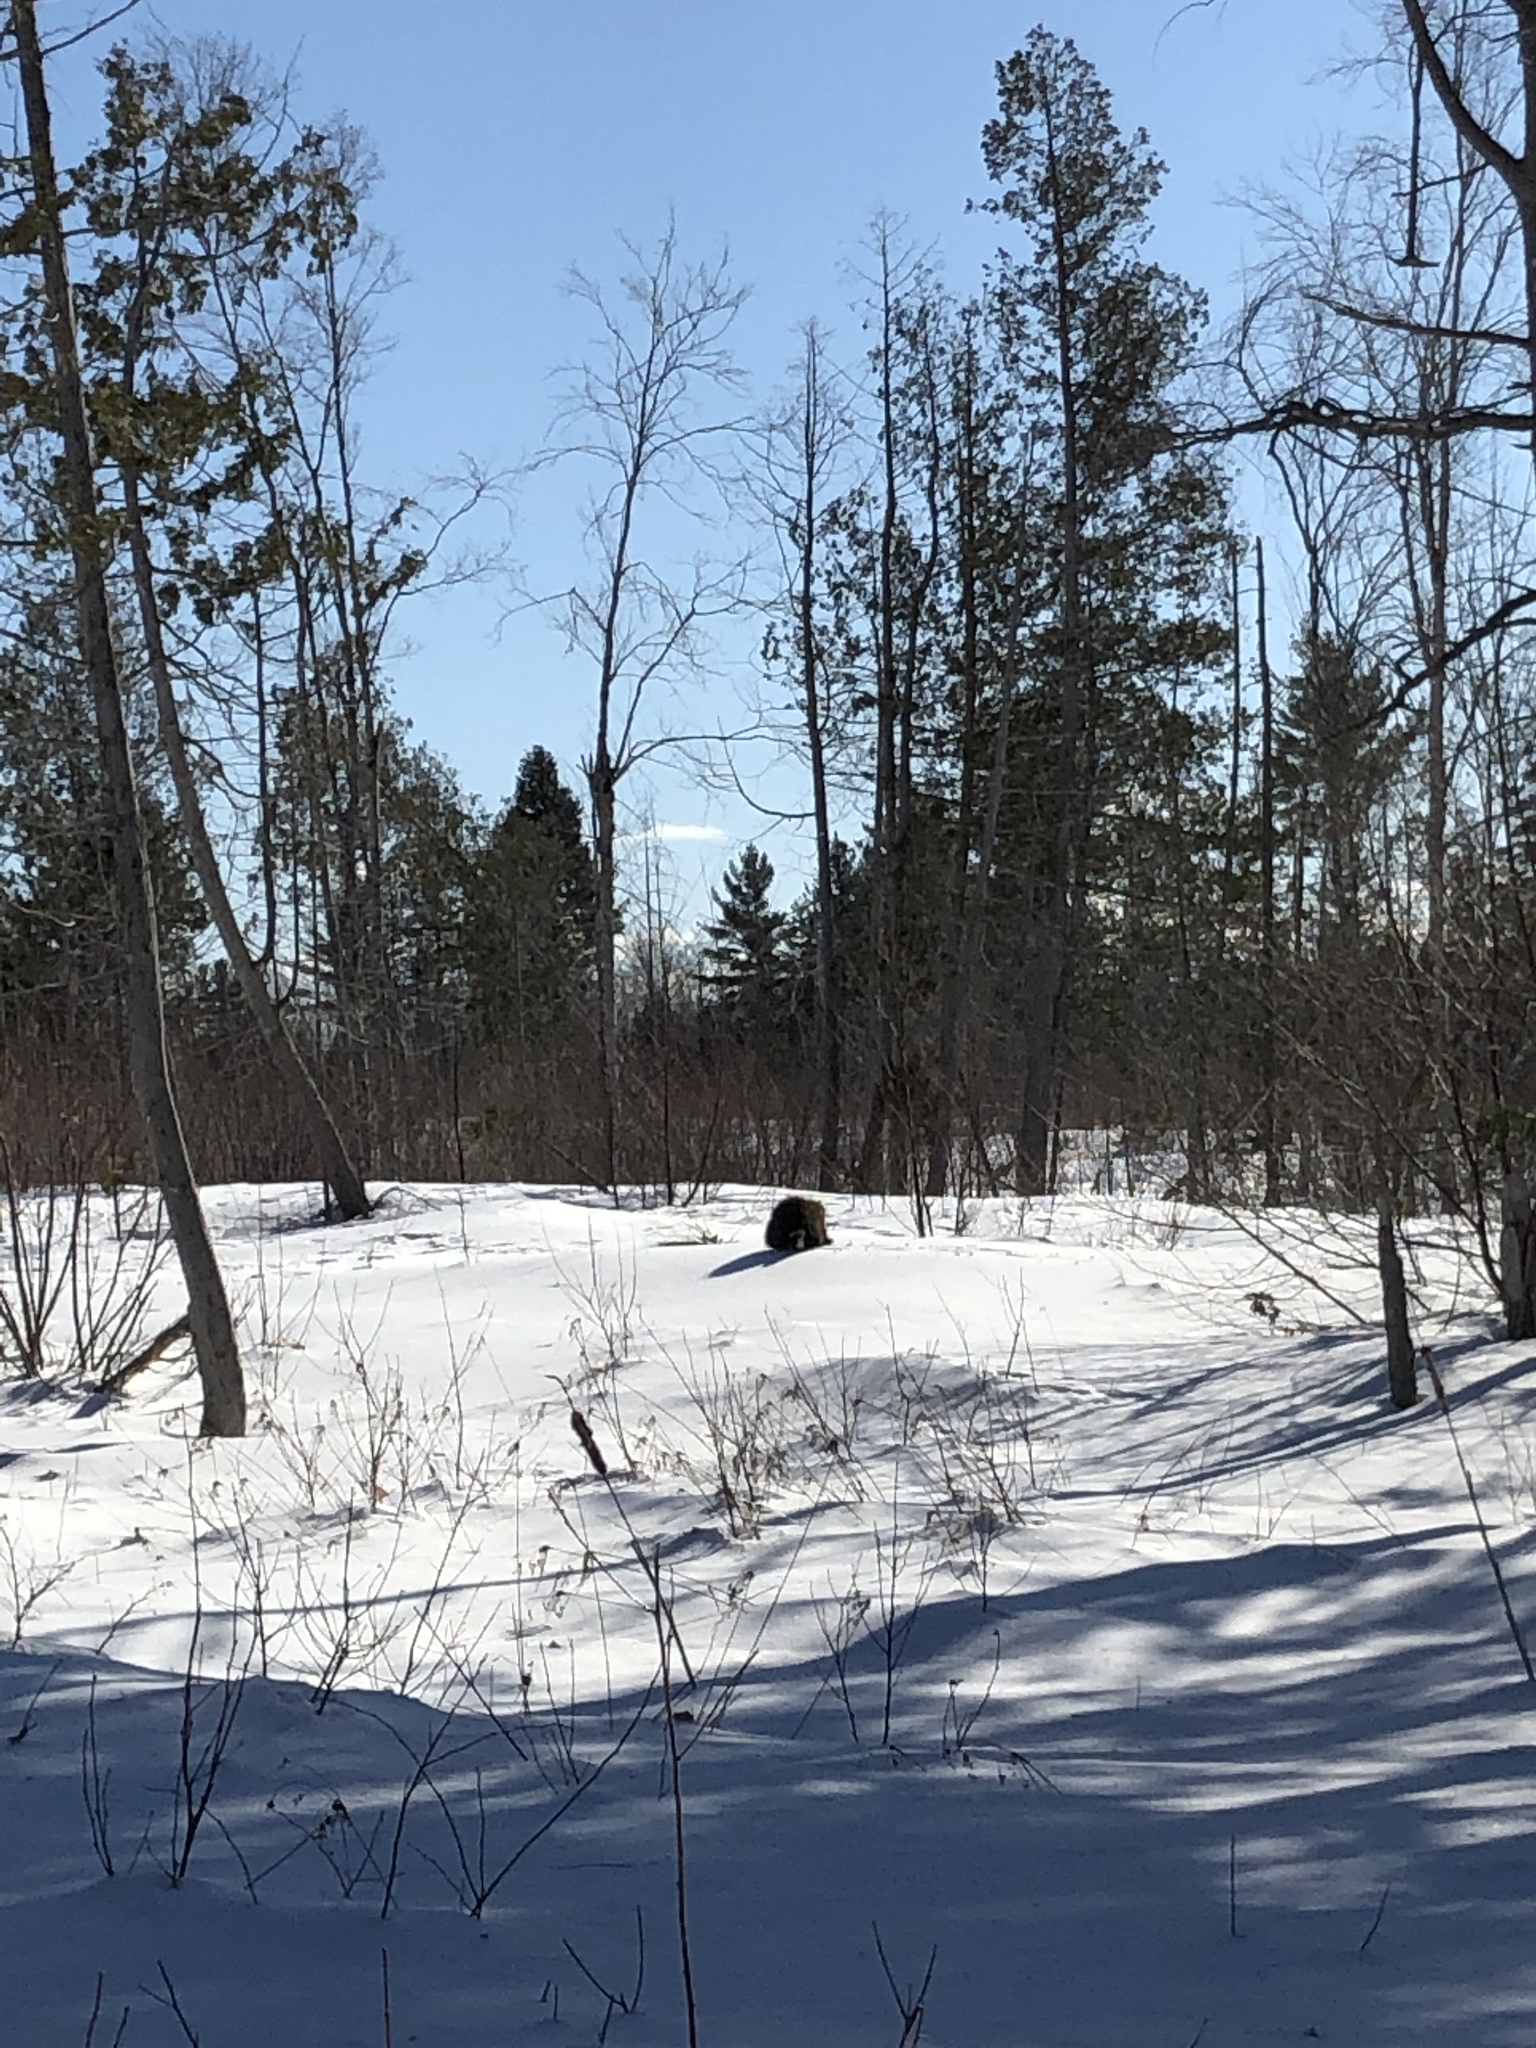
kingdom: Animalia
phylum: Chordata
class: Mammalia
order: Rodentia
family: Castoridae
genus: Castor
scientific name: Castor canadensis
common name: American beaver
